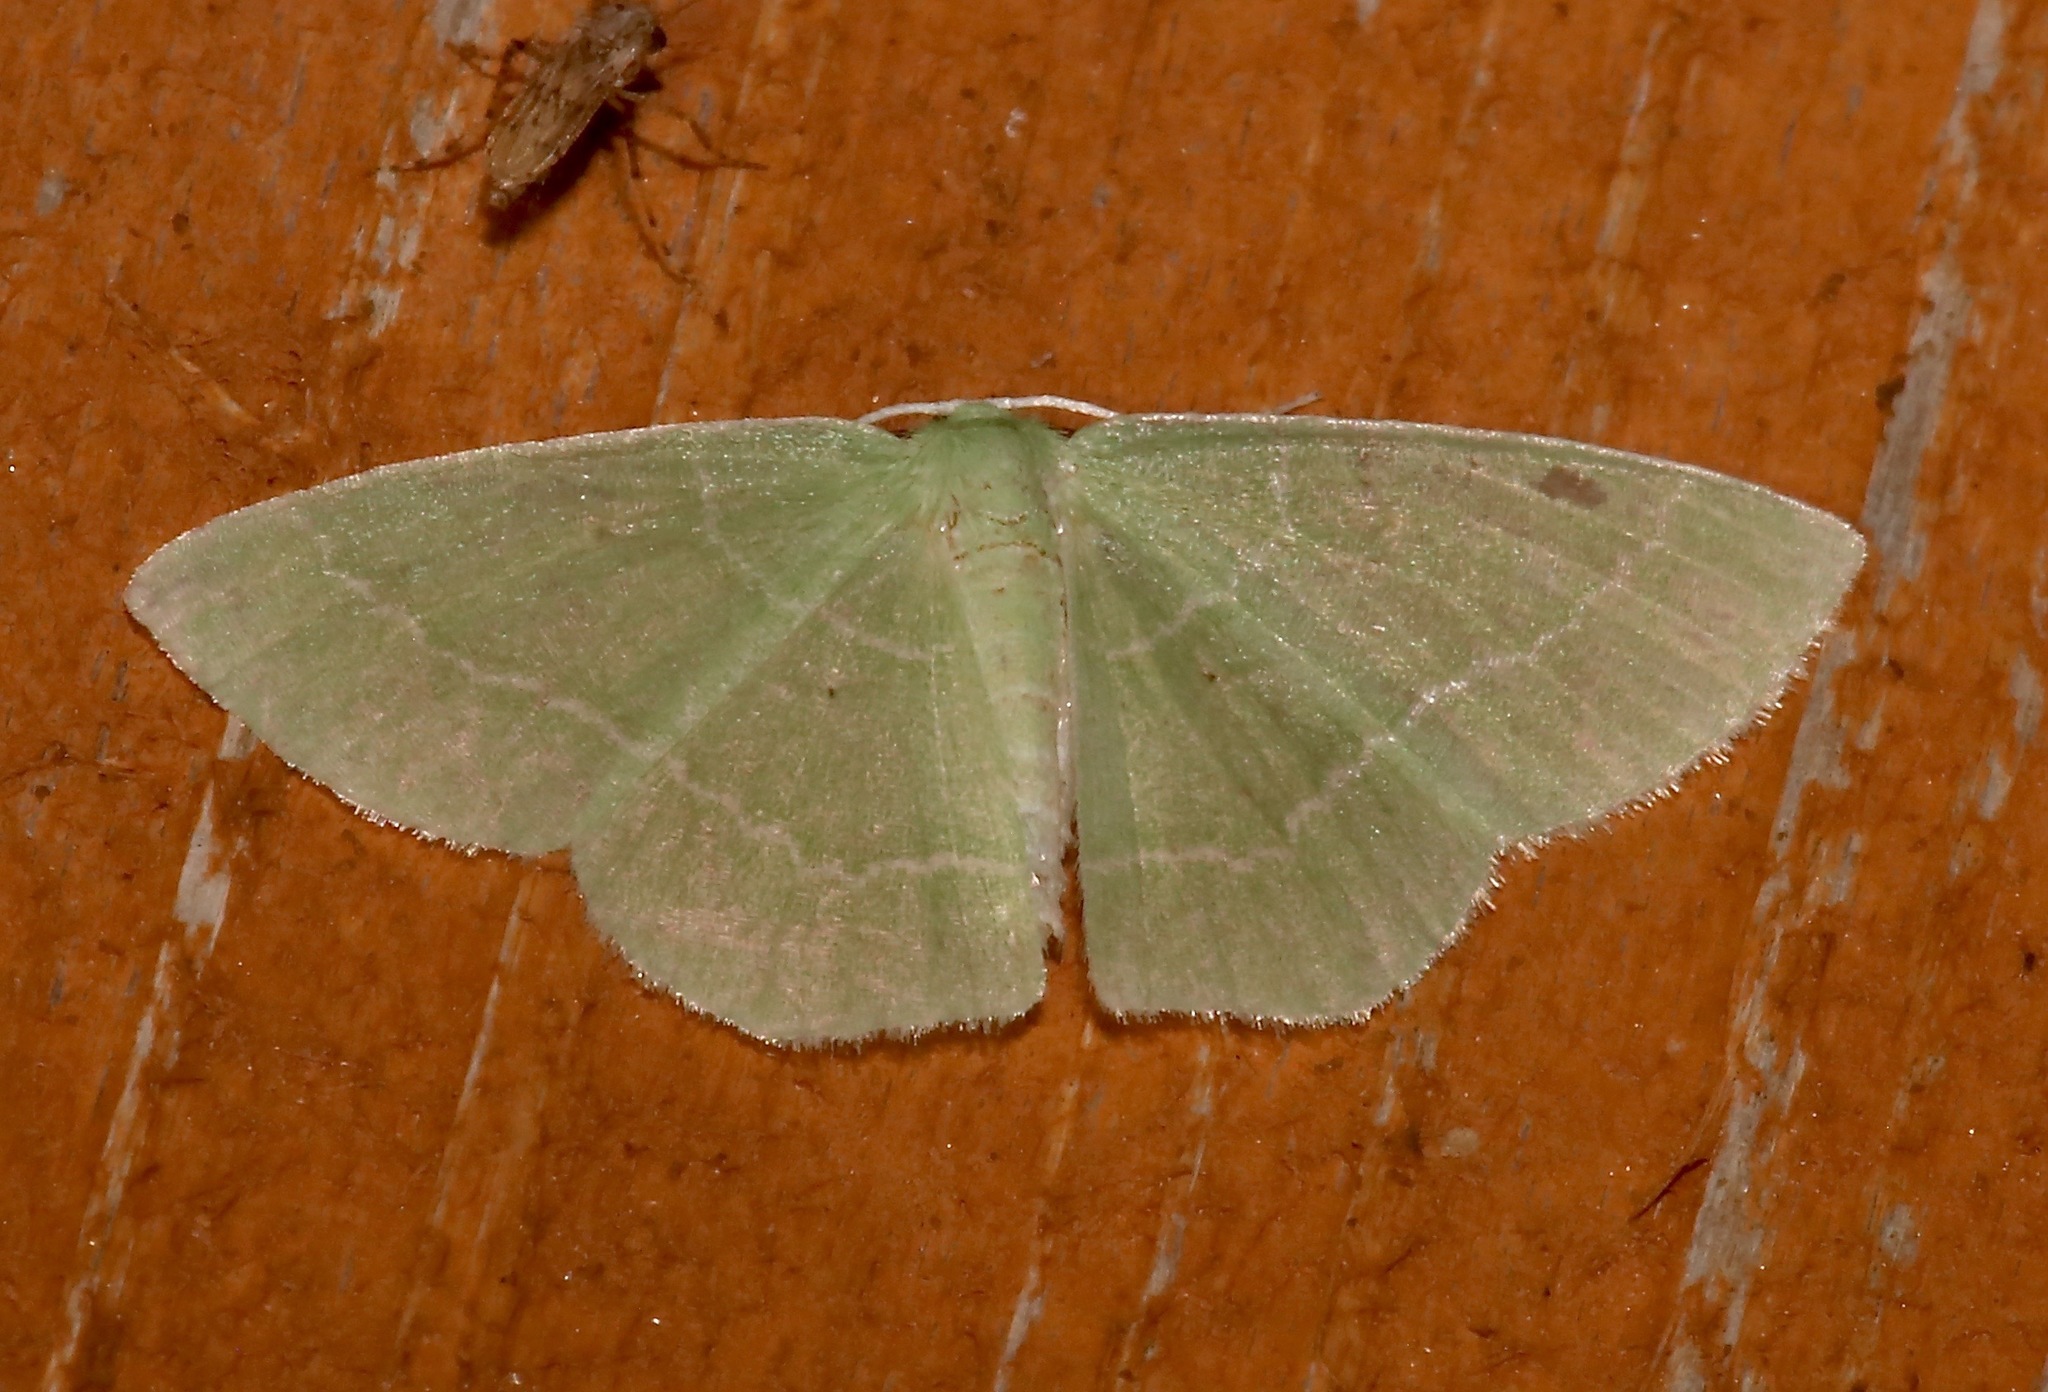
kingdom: Animalia
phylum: Arthropoda
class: Insecta
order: Lepidoptera
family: Geometridae
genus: Nemoria
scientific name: Nemoria elfa
